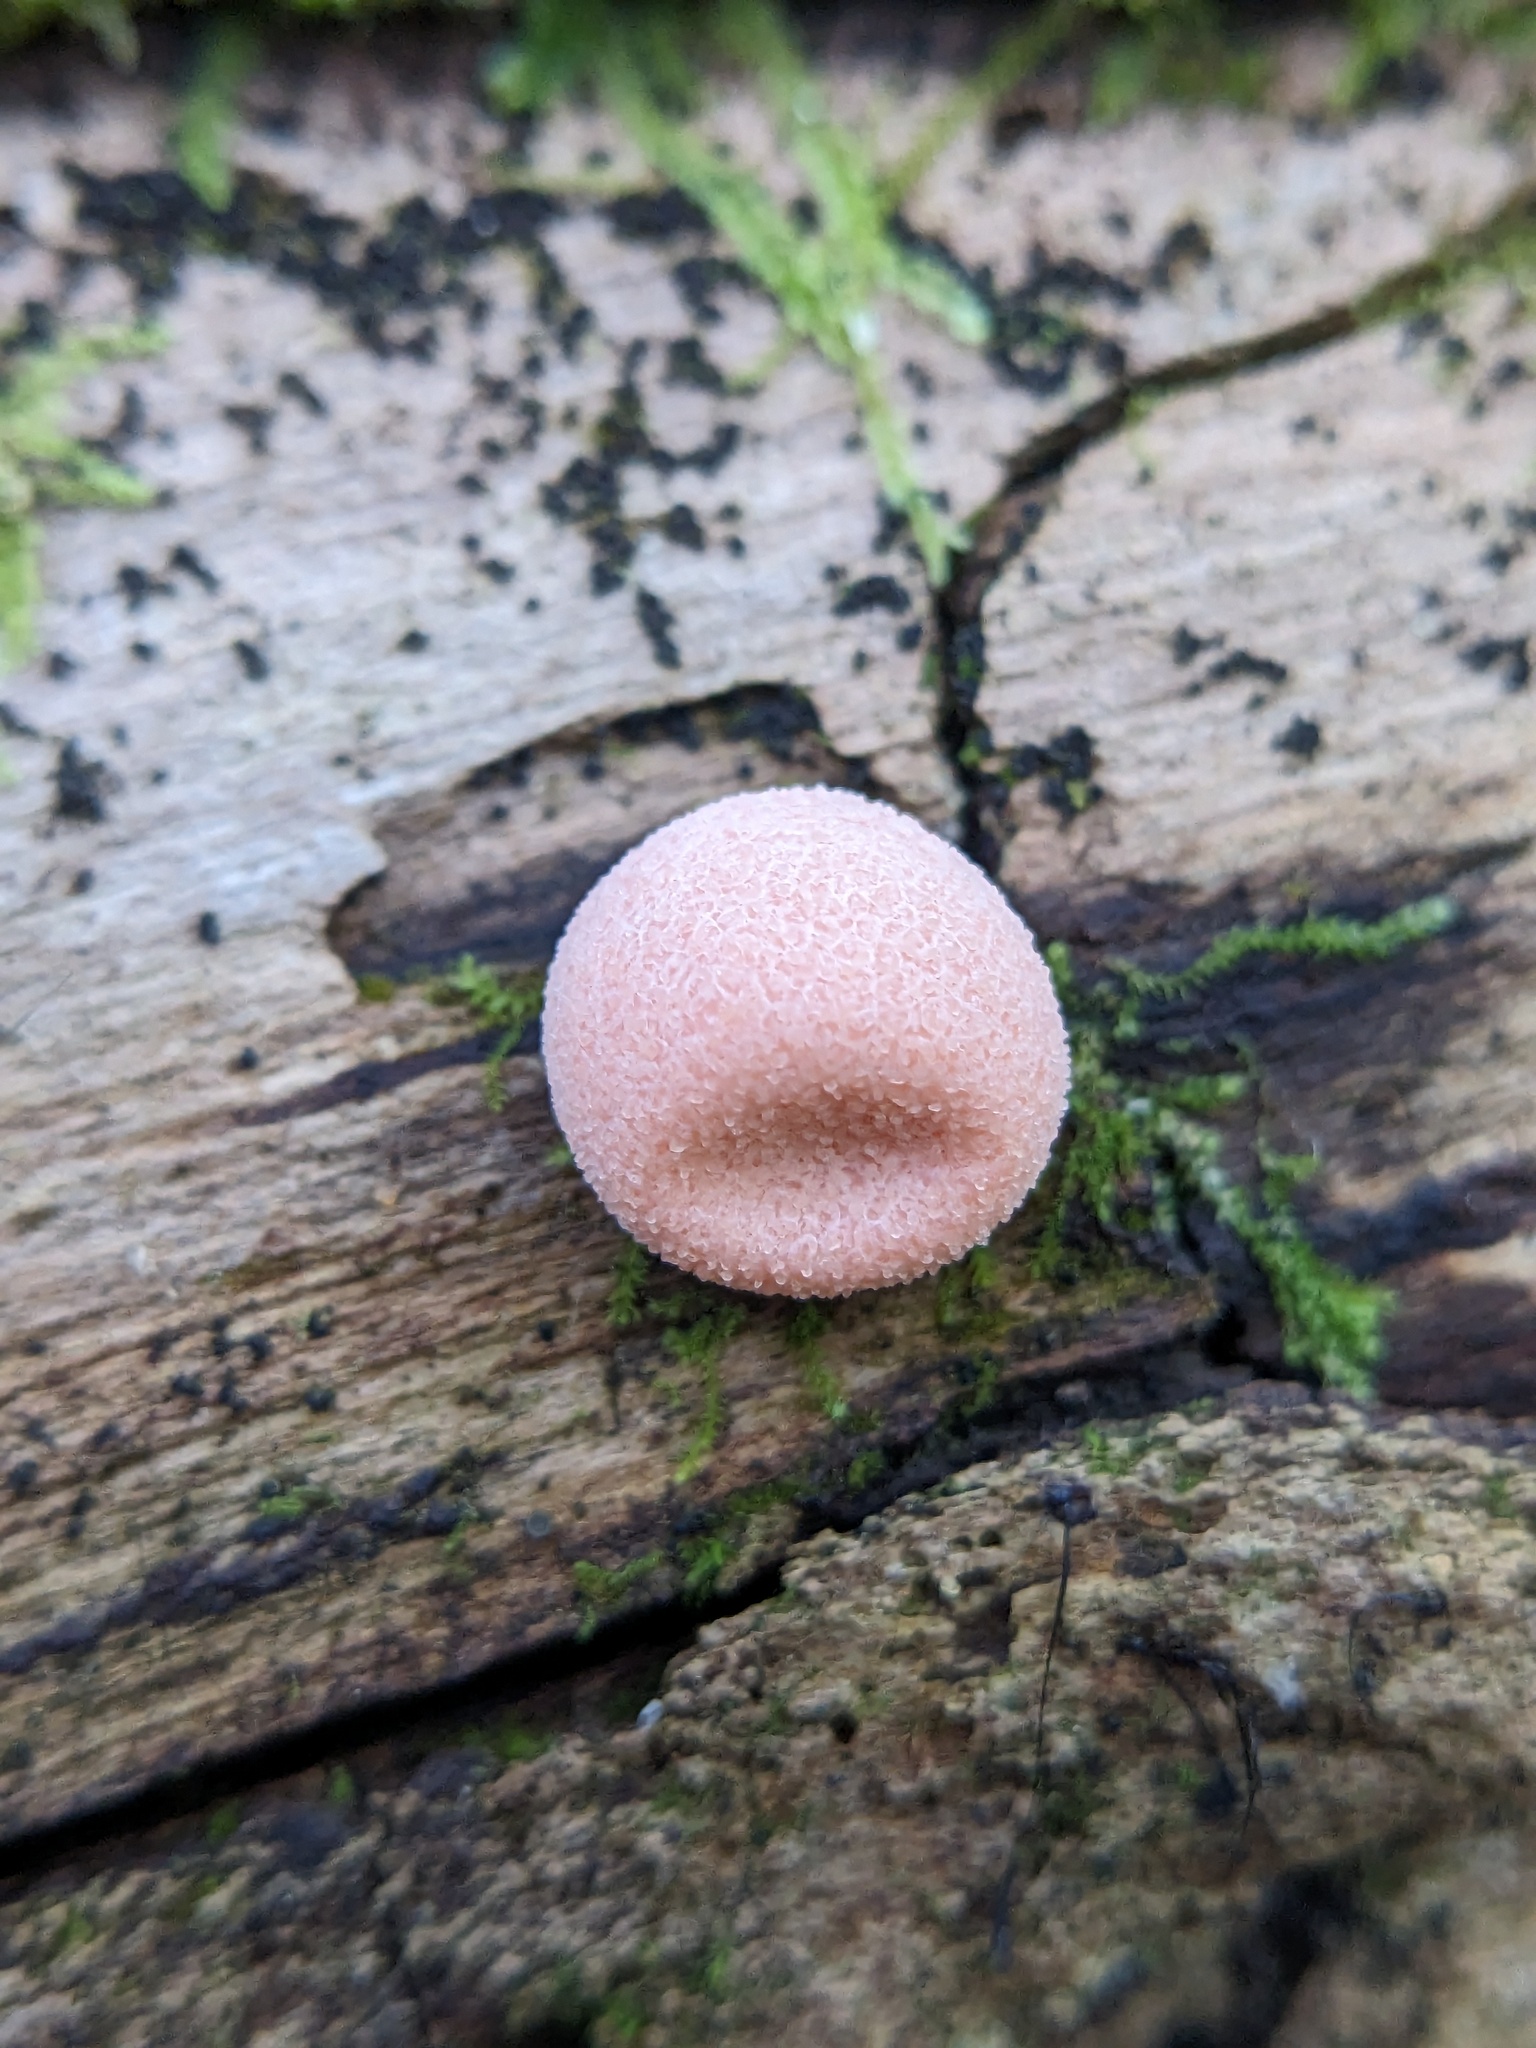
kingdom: Protozoa
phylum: Mycetozoa
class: Myxomycetes
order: Cribrariales
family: Tubiferaceae
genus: Lycogala
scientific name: Lycogala epidendrum
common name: Wolf's milk
